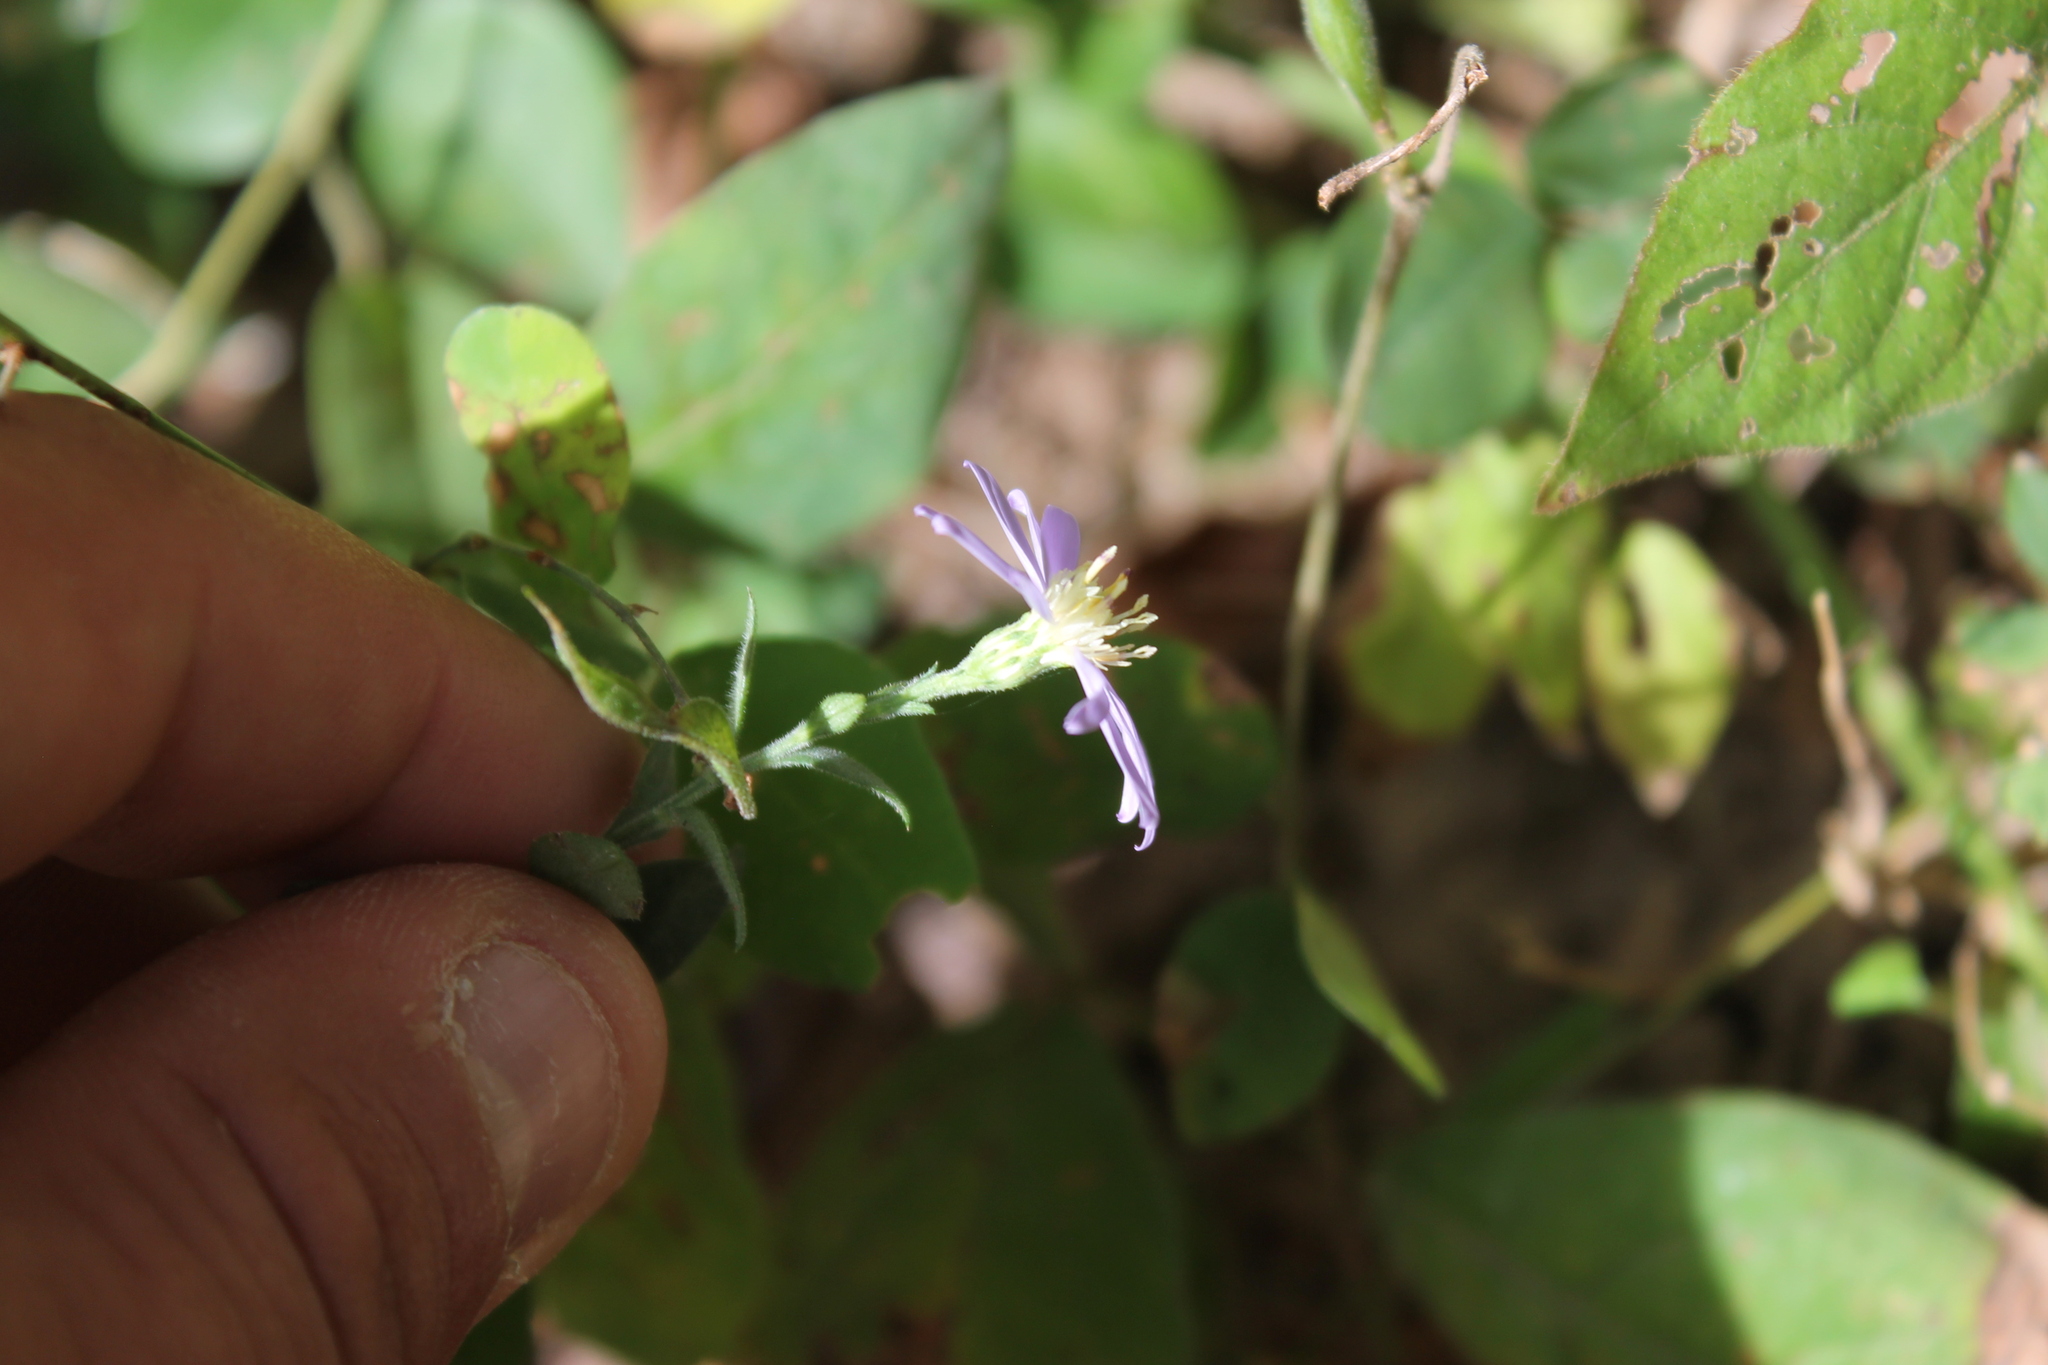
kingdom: Plantae
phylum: Tracheophyta
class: Magnoliopsida
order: Asterales
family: Asteraceae
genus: Symphyotrichum
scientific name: Symphyotrichum shortii
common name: Short's aster
